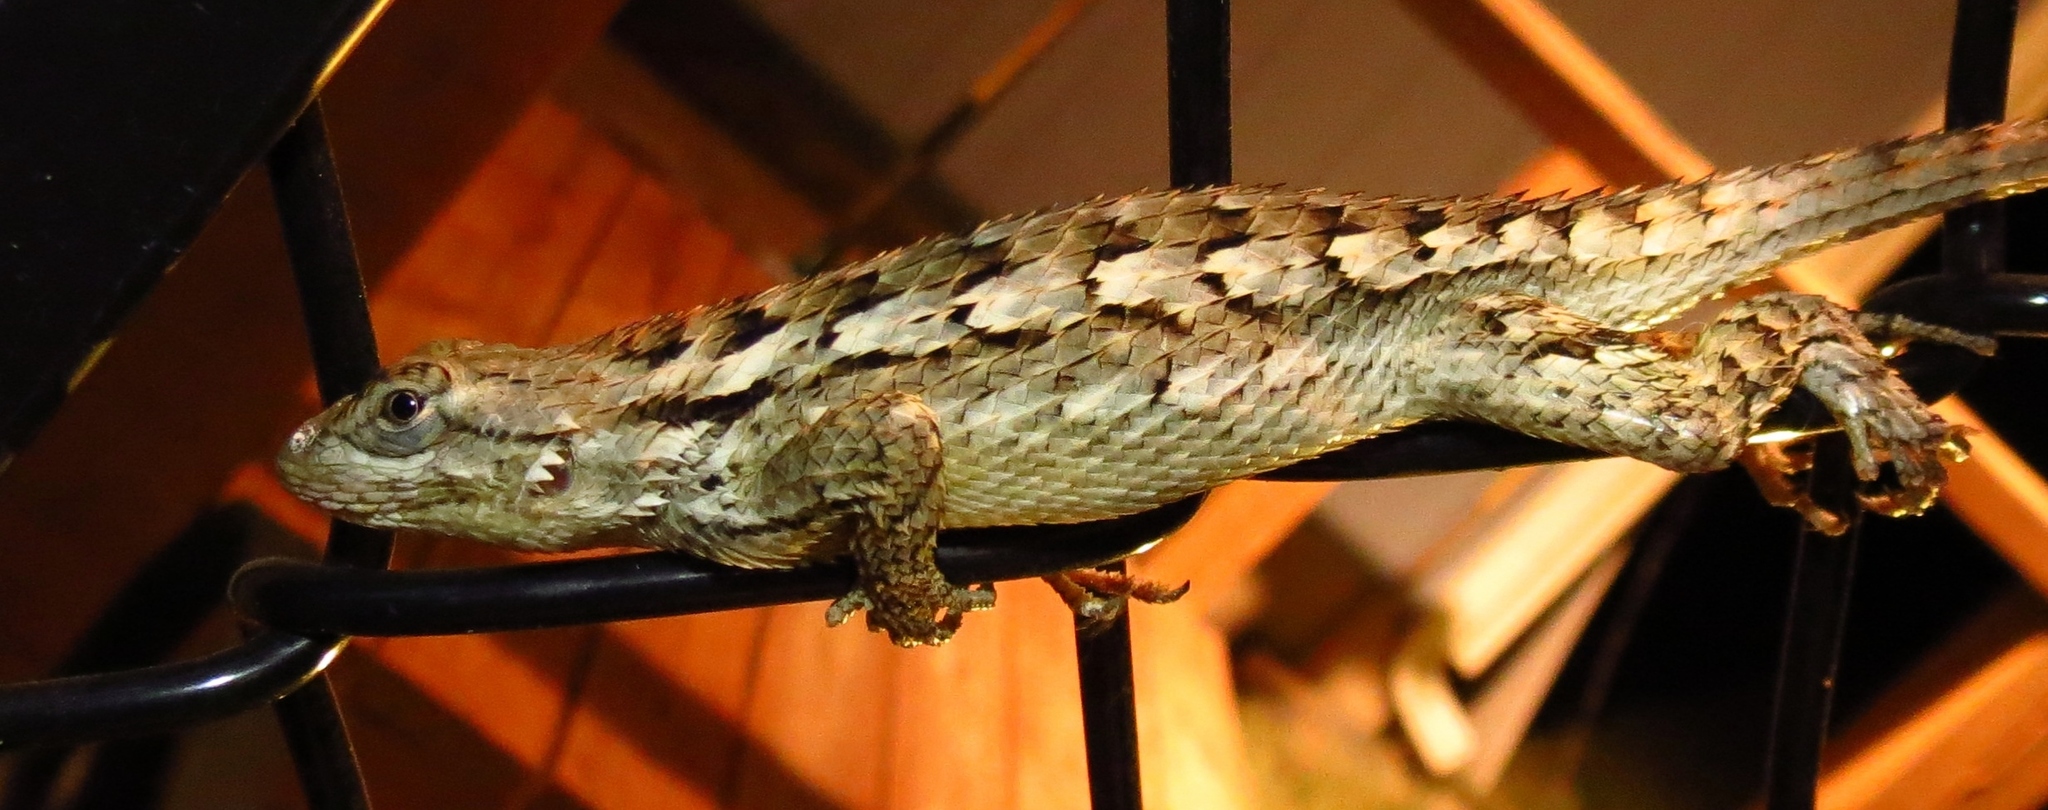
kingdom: Animalia
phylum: Chordata
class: Squamata
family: Phrynosomatidae
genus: Sceloporus
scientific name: Sceloporus olivaceus
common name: Texas spiny lizard
